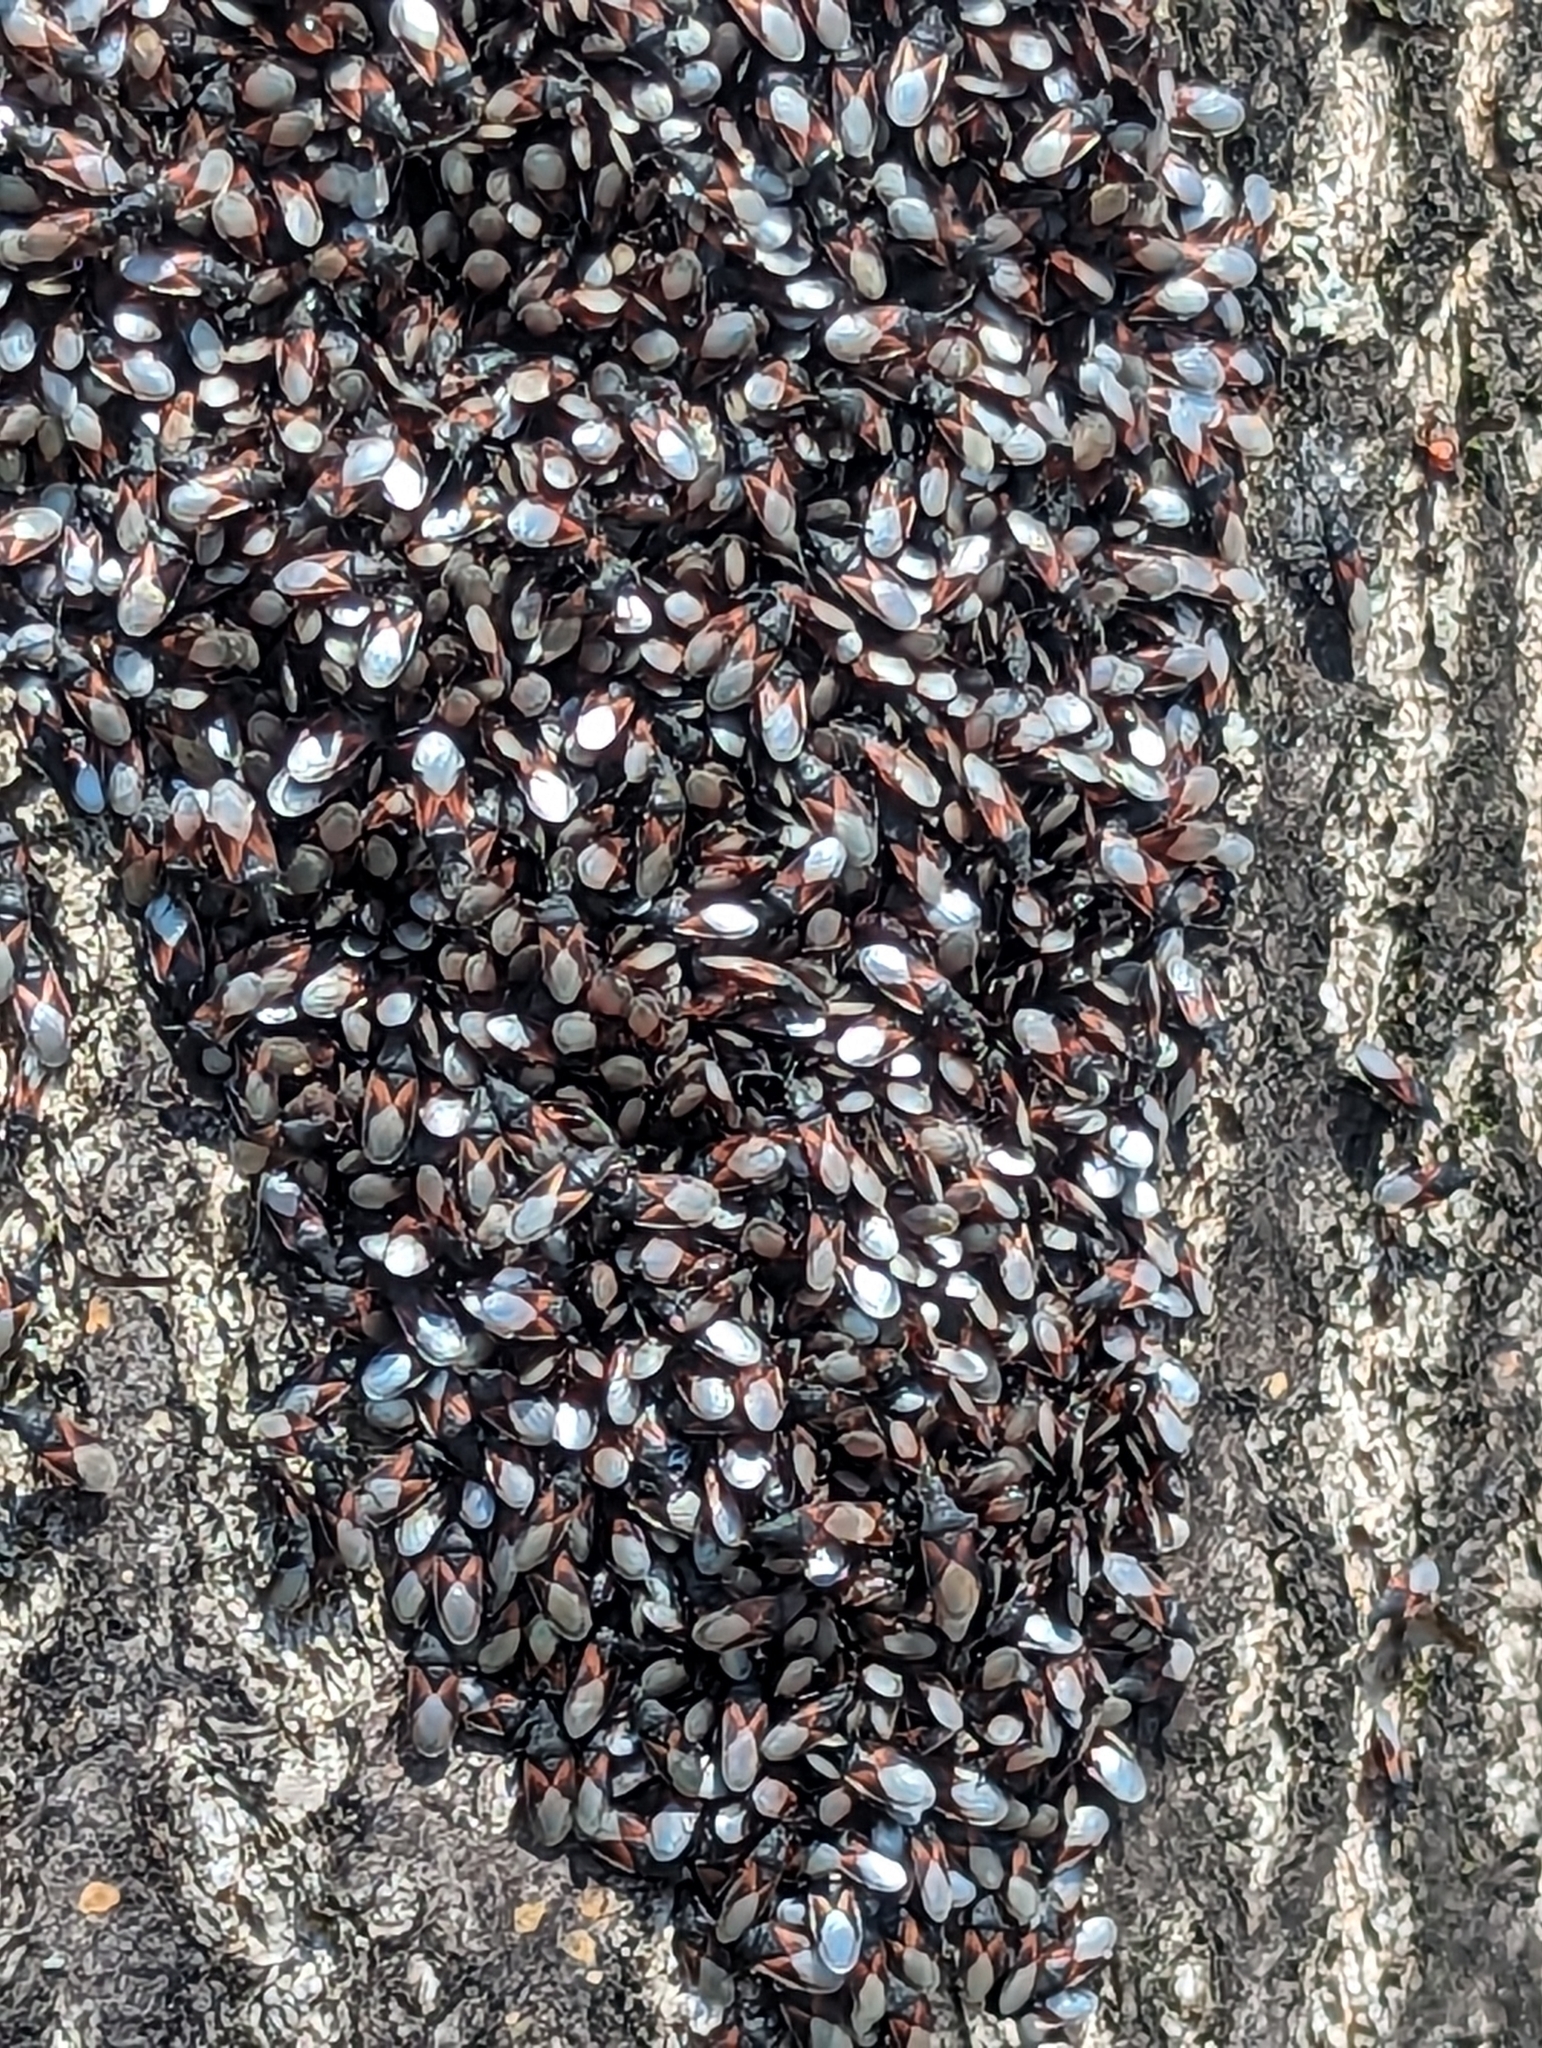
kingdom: Animalia
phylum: Arthropoda
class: Insecta
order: Hemiptera
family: Oxycarenidae
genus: Oxycarenus
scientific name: Oxycarenus lavaterae
